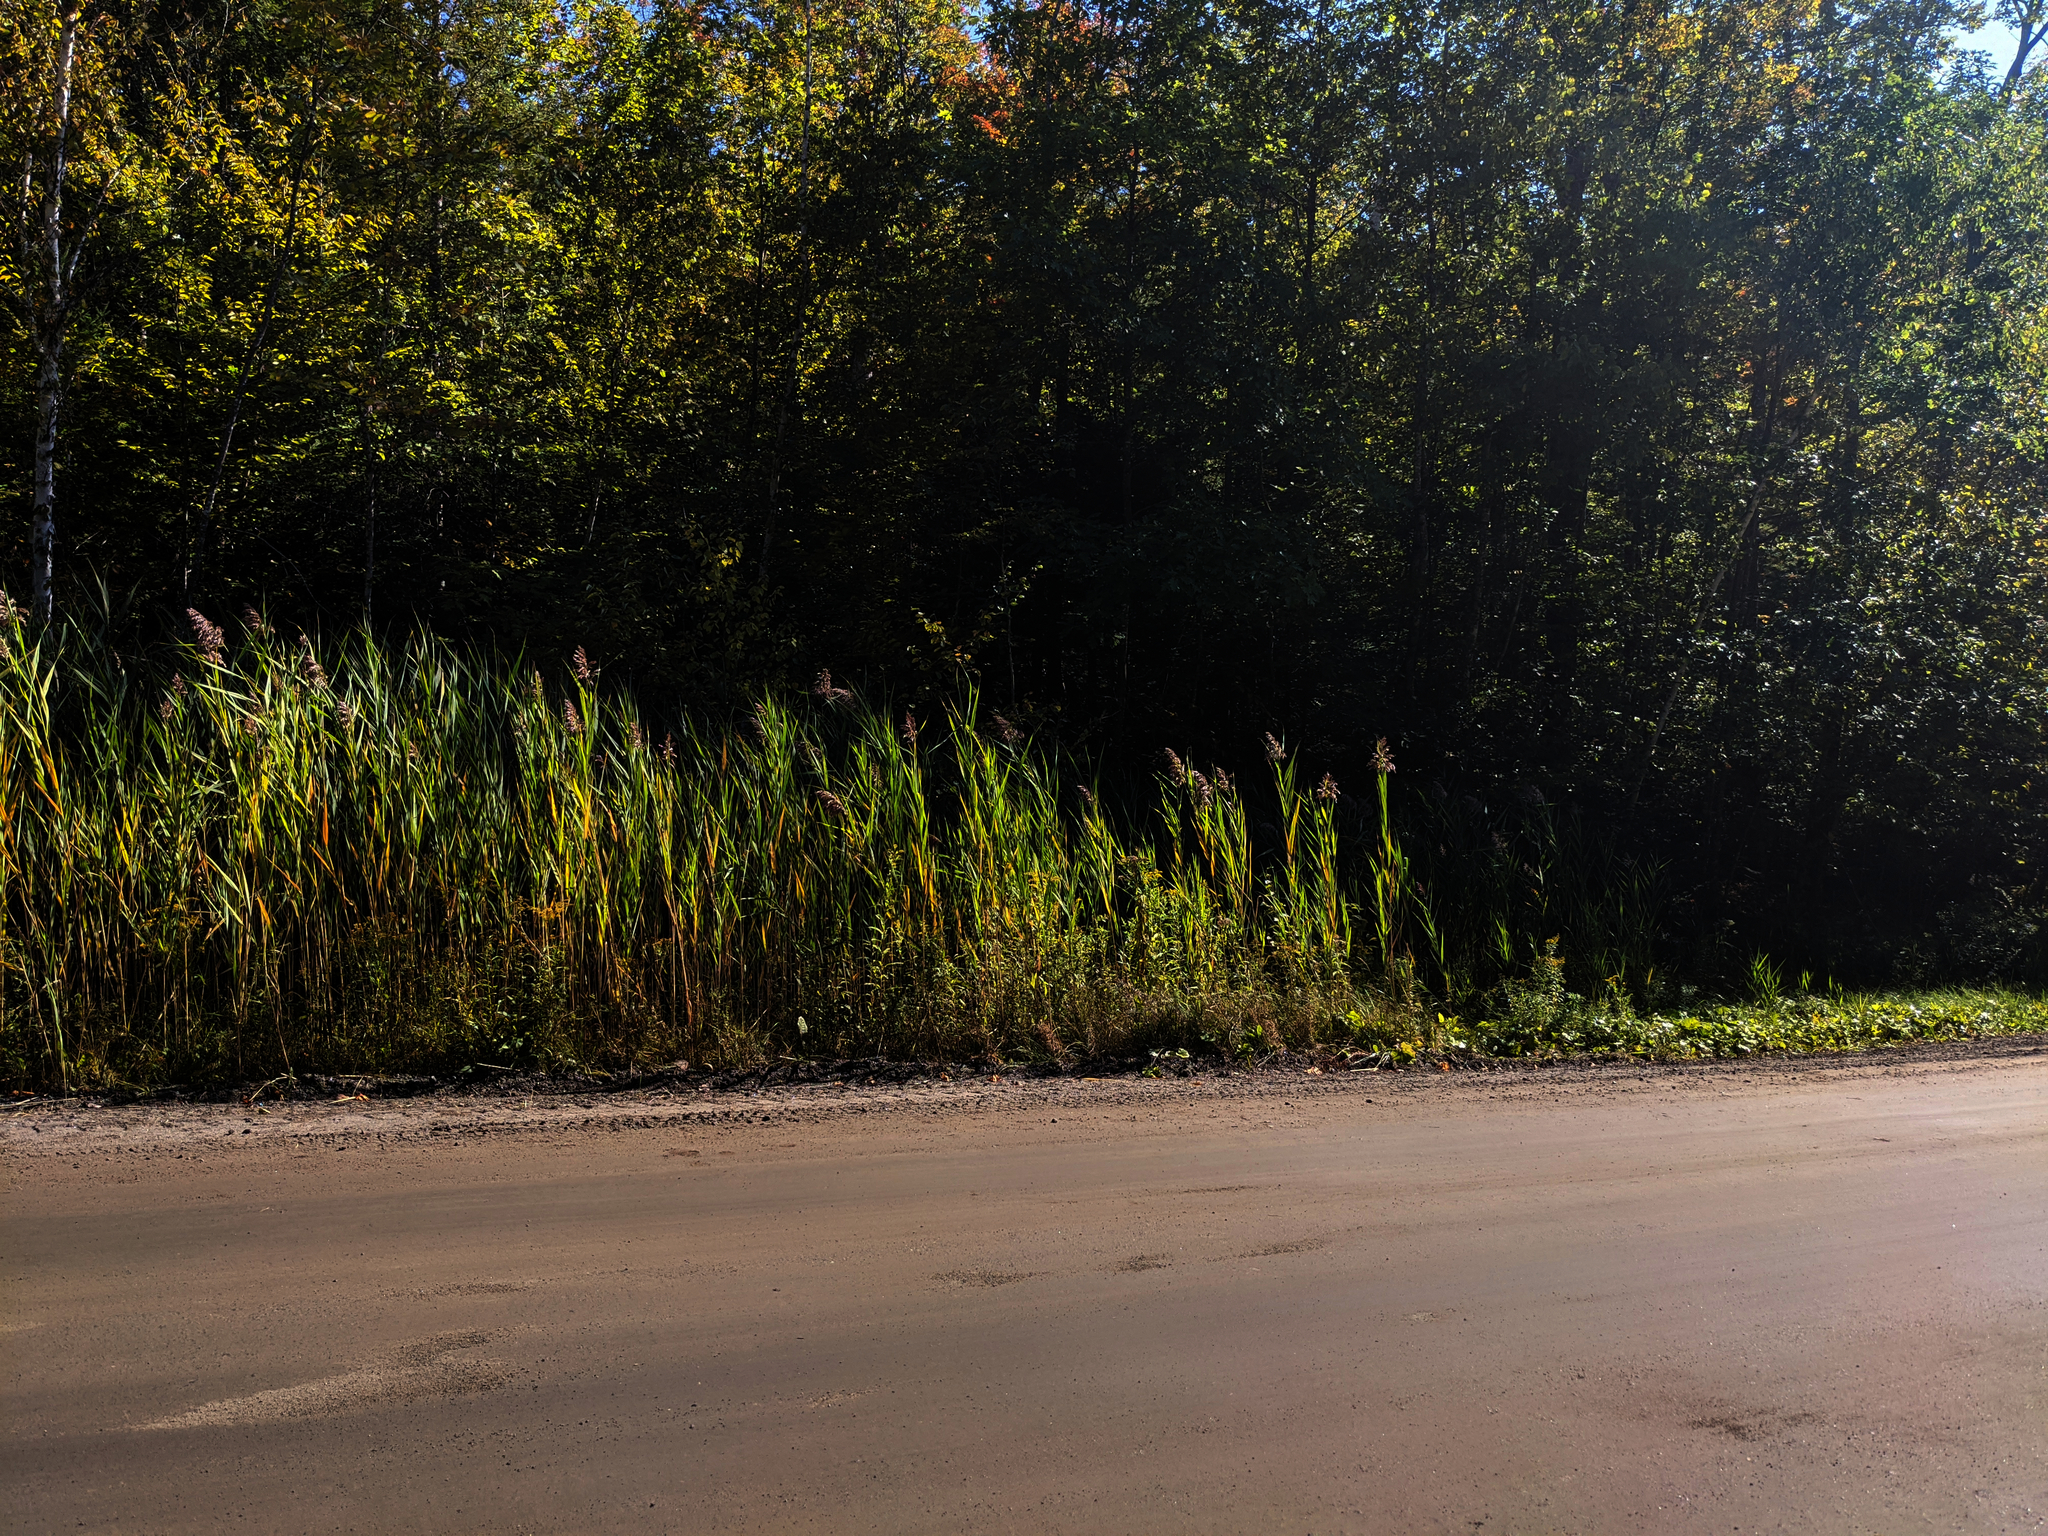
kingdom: Plantae
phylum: Tracheophyta
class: Liliopsida
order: Poales
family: Poaceae
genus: Phragmites
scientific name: Phragmites australis
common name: Common reed
